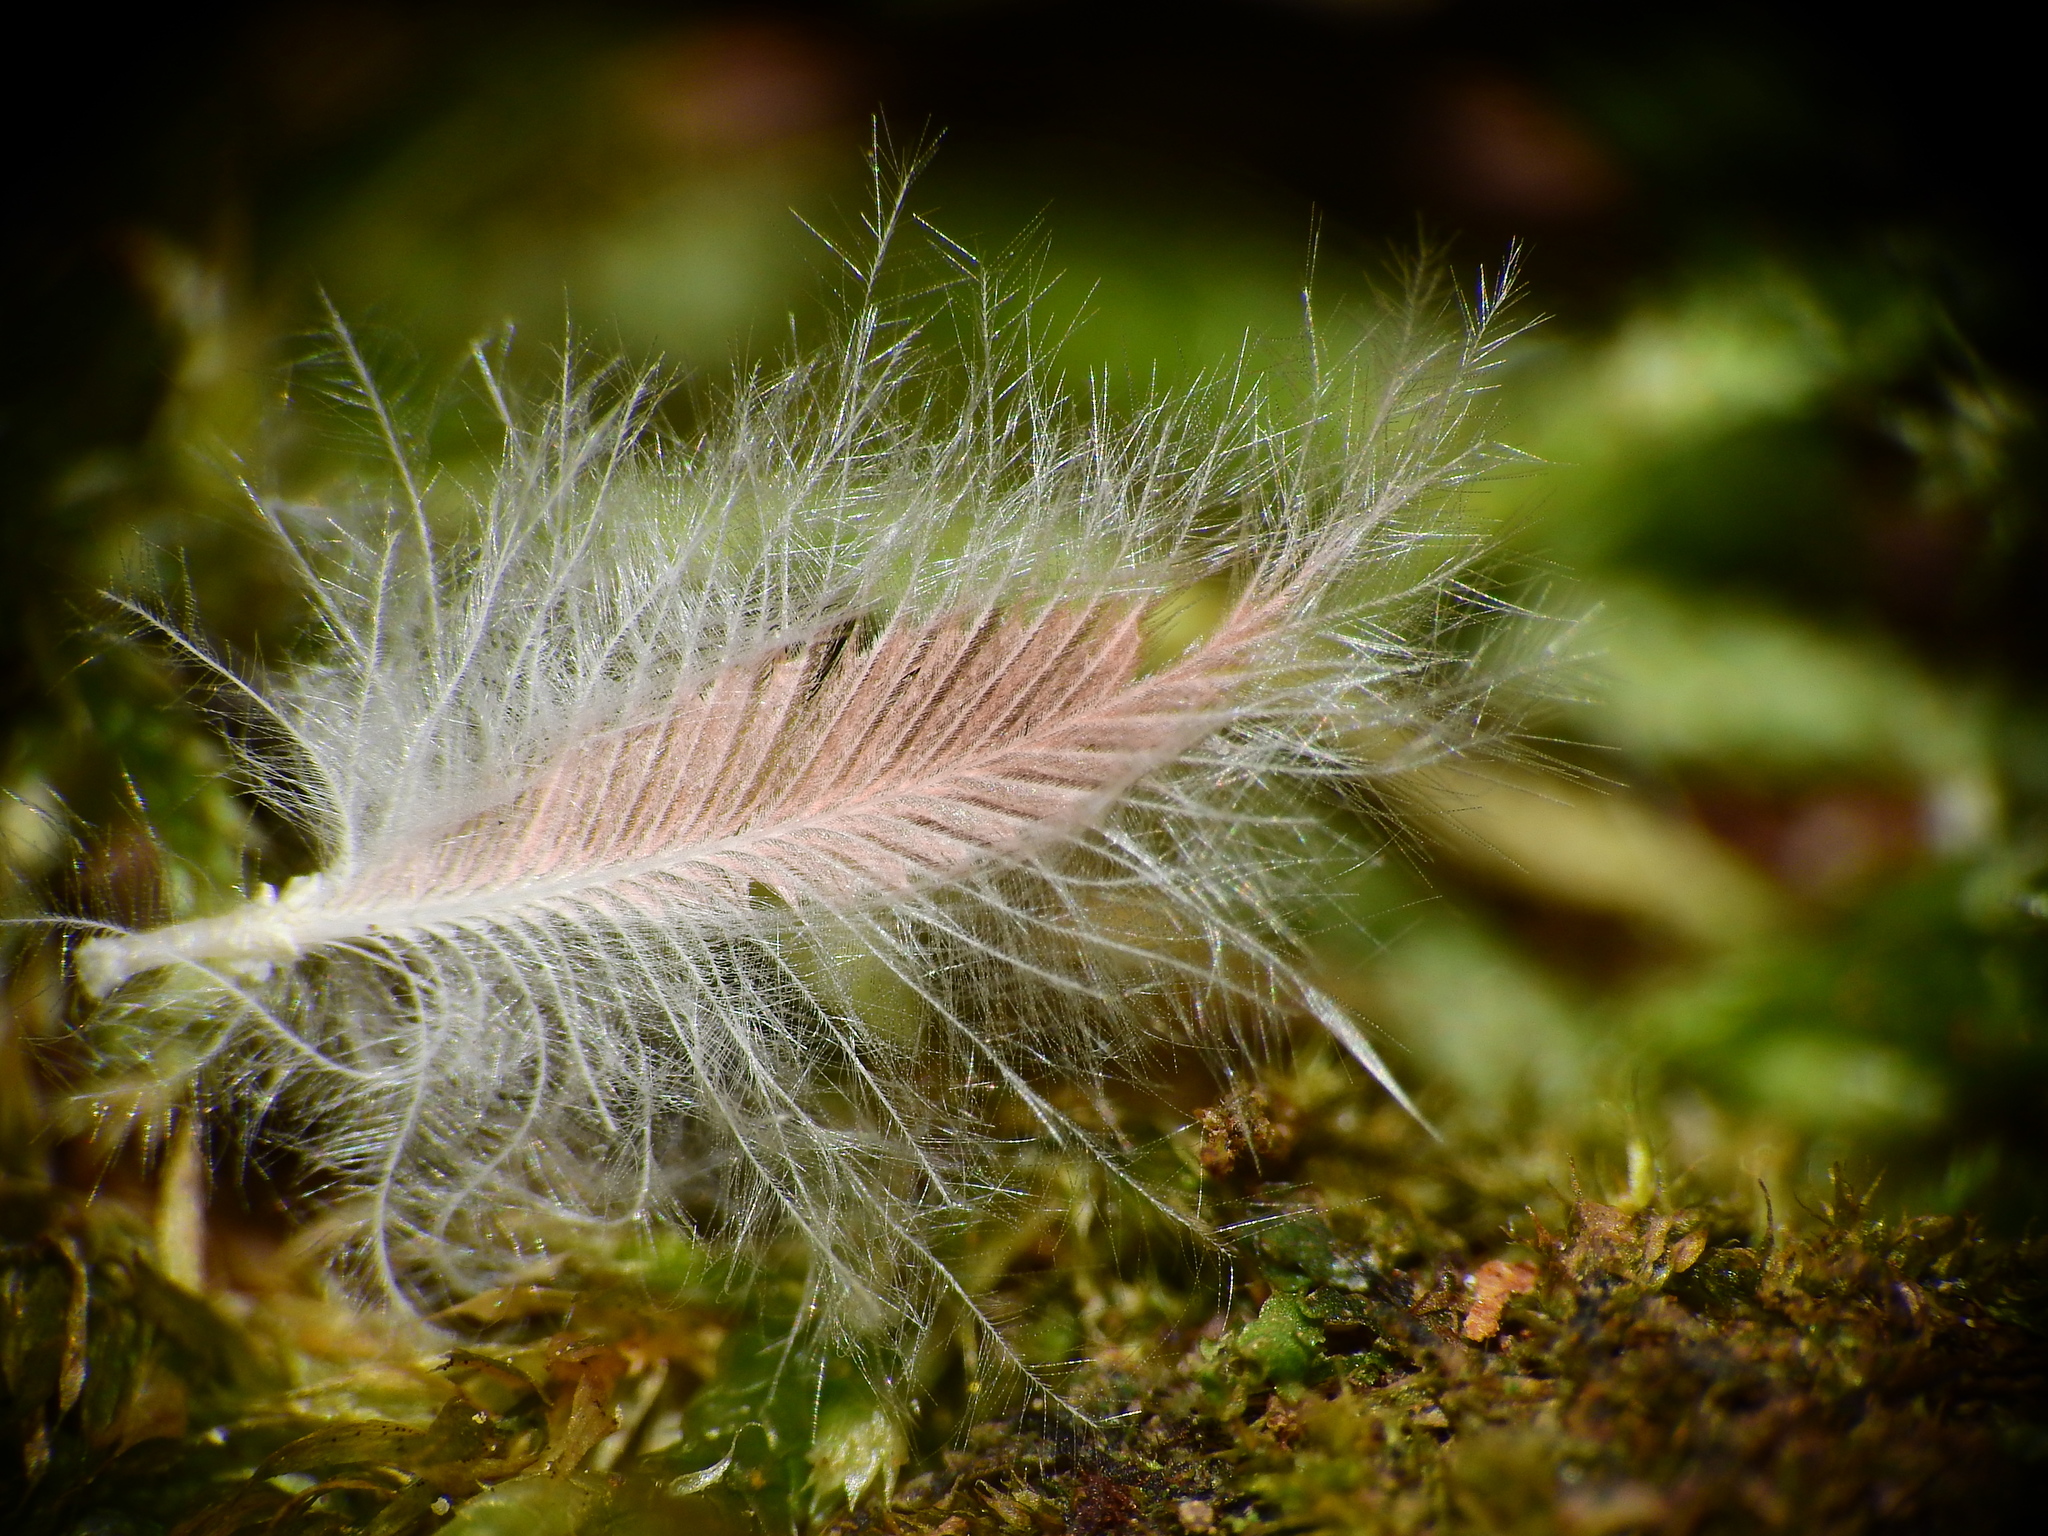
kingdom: Animalia
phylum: Chordata
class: Aves
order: Passeriformes
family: Cardinalidae
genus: Cardinalis
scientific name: Cardinalis cardinalis
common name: Northern cardinal
